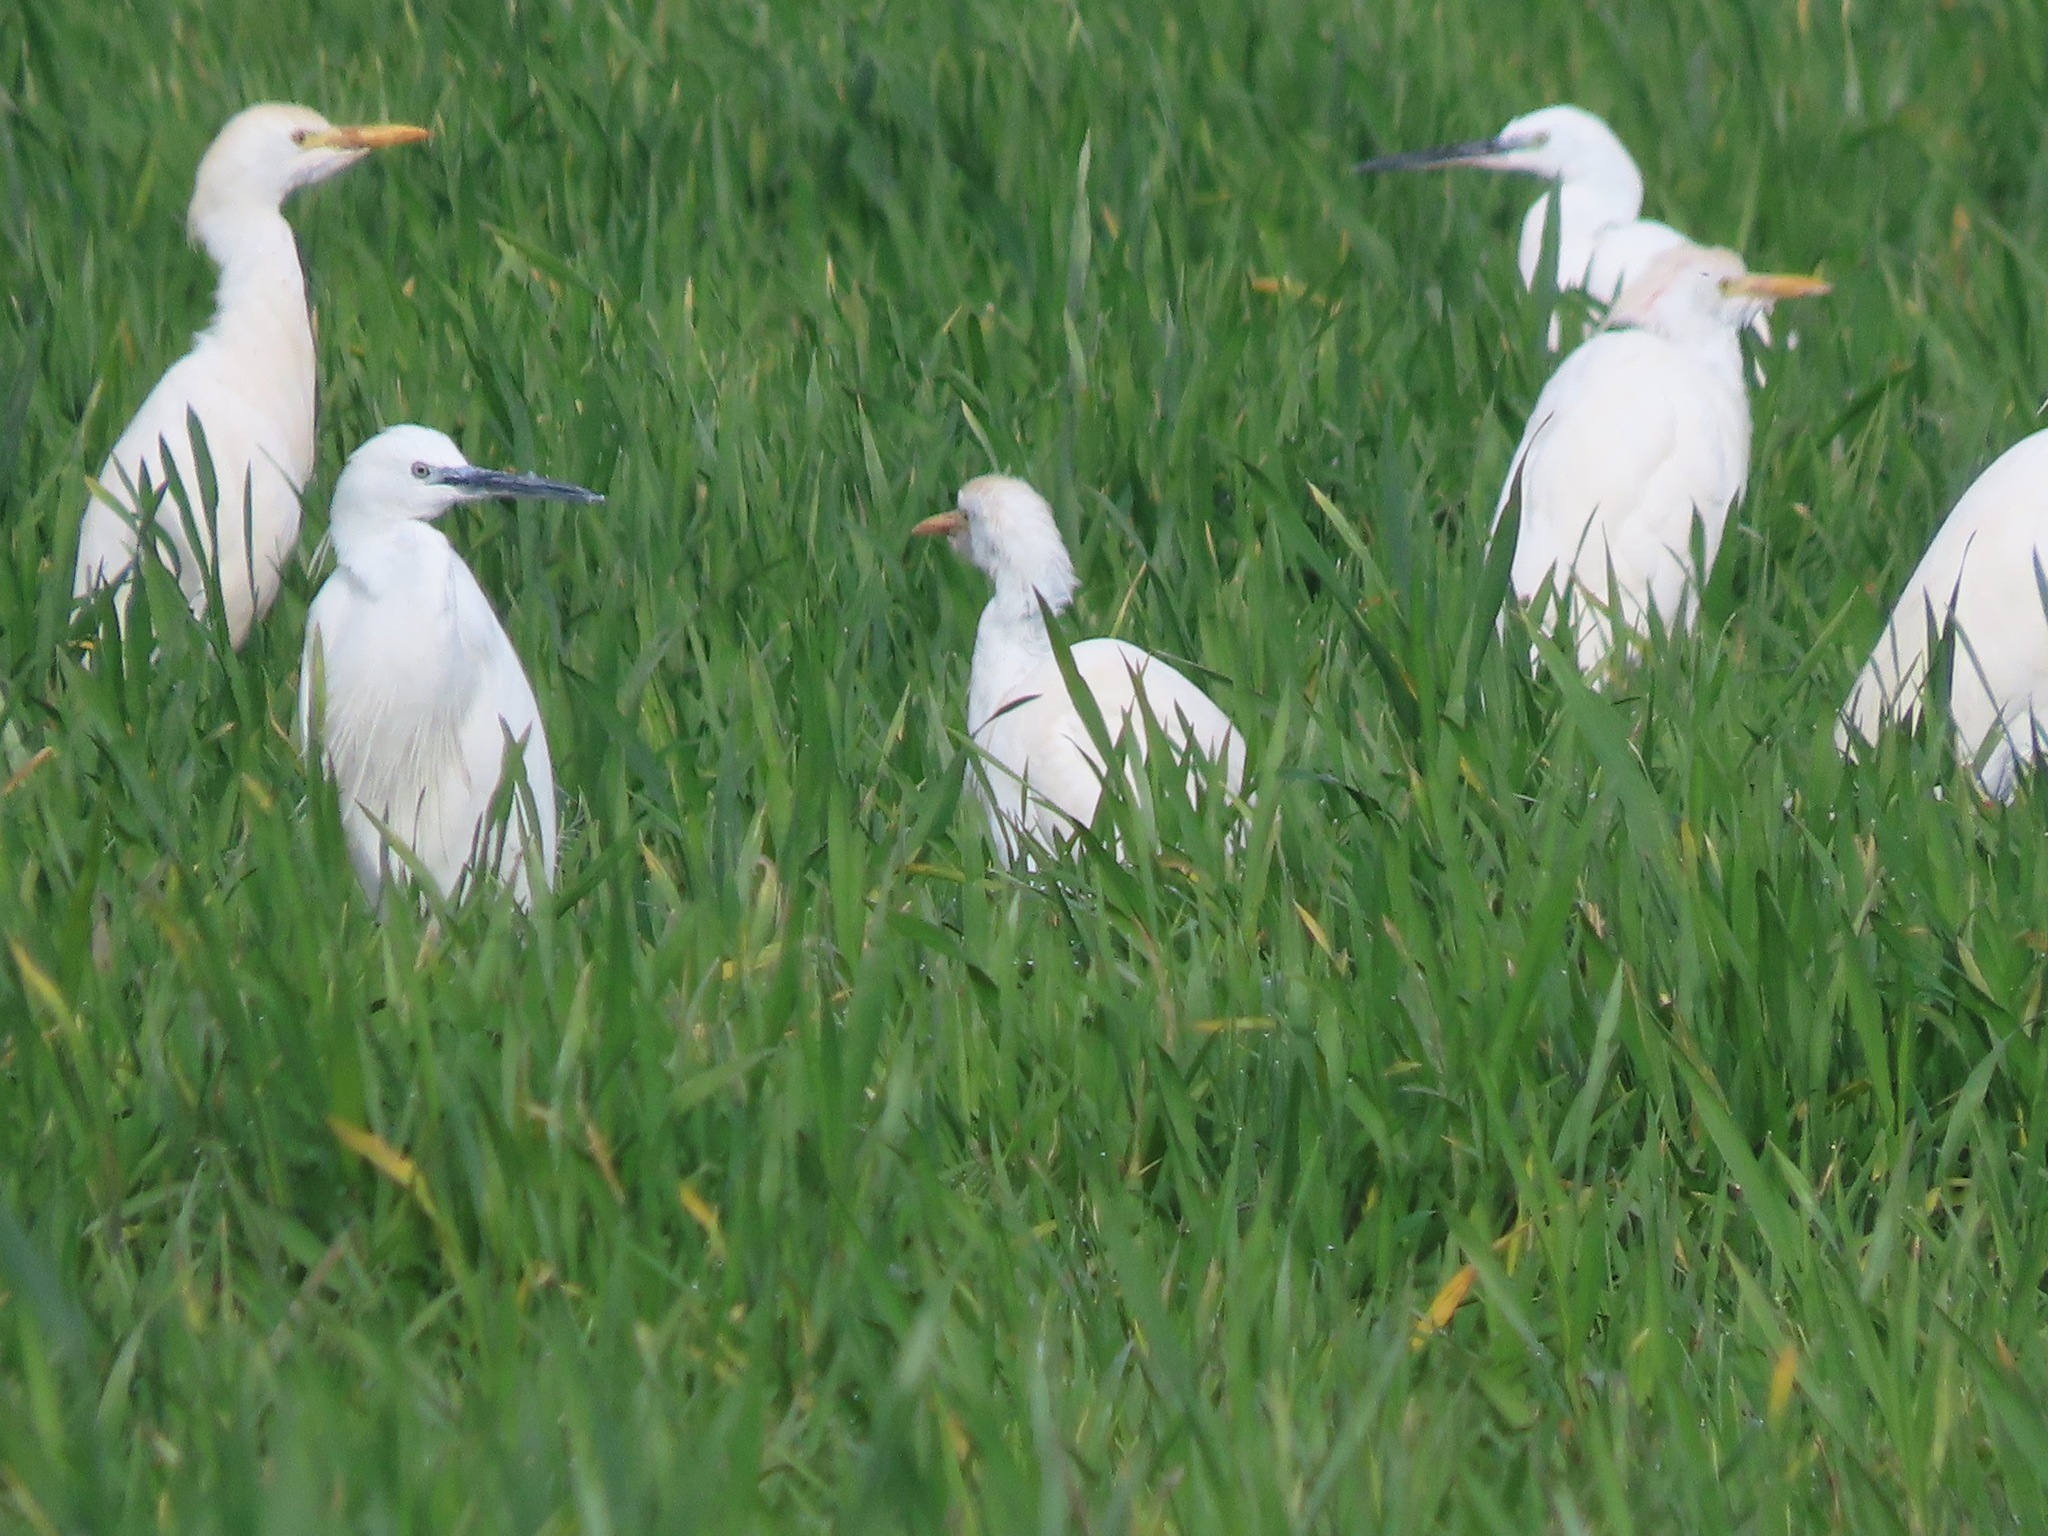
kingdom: Animalia
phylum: Chordata
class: Aves
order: Pelecaniformes
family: Ardeidae
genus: Bubulcus
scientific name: Bubulcus ibis
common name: Cattle egret
